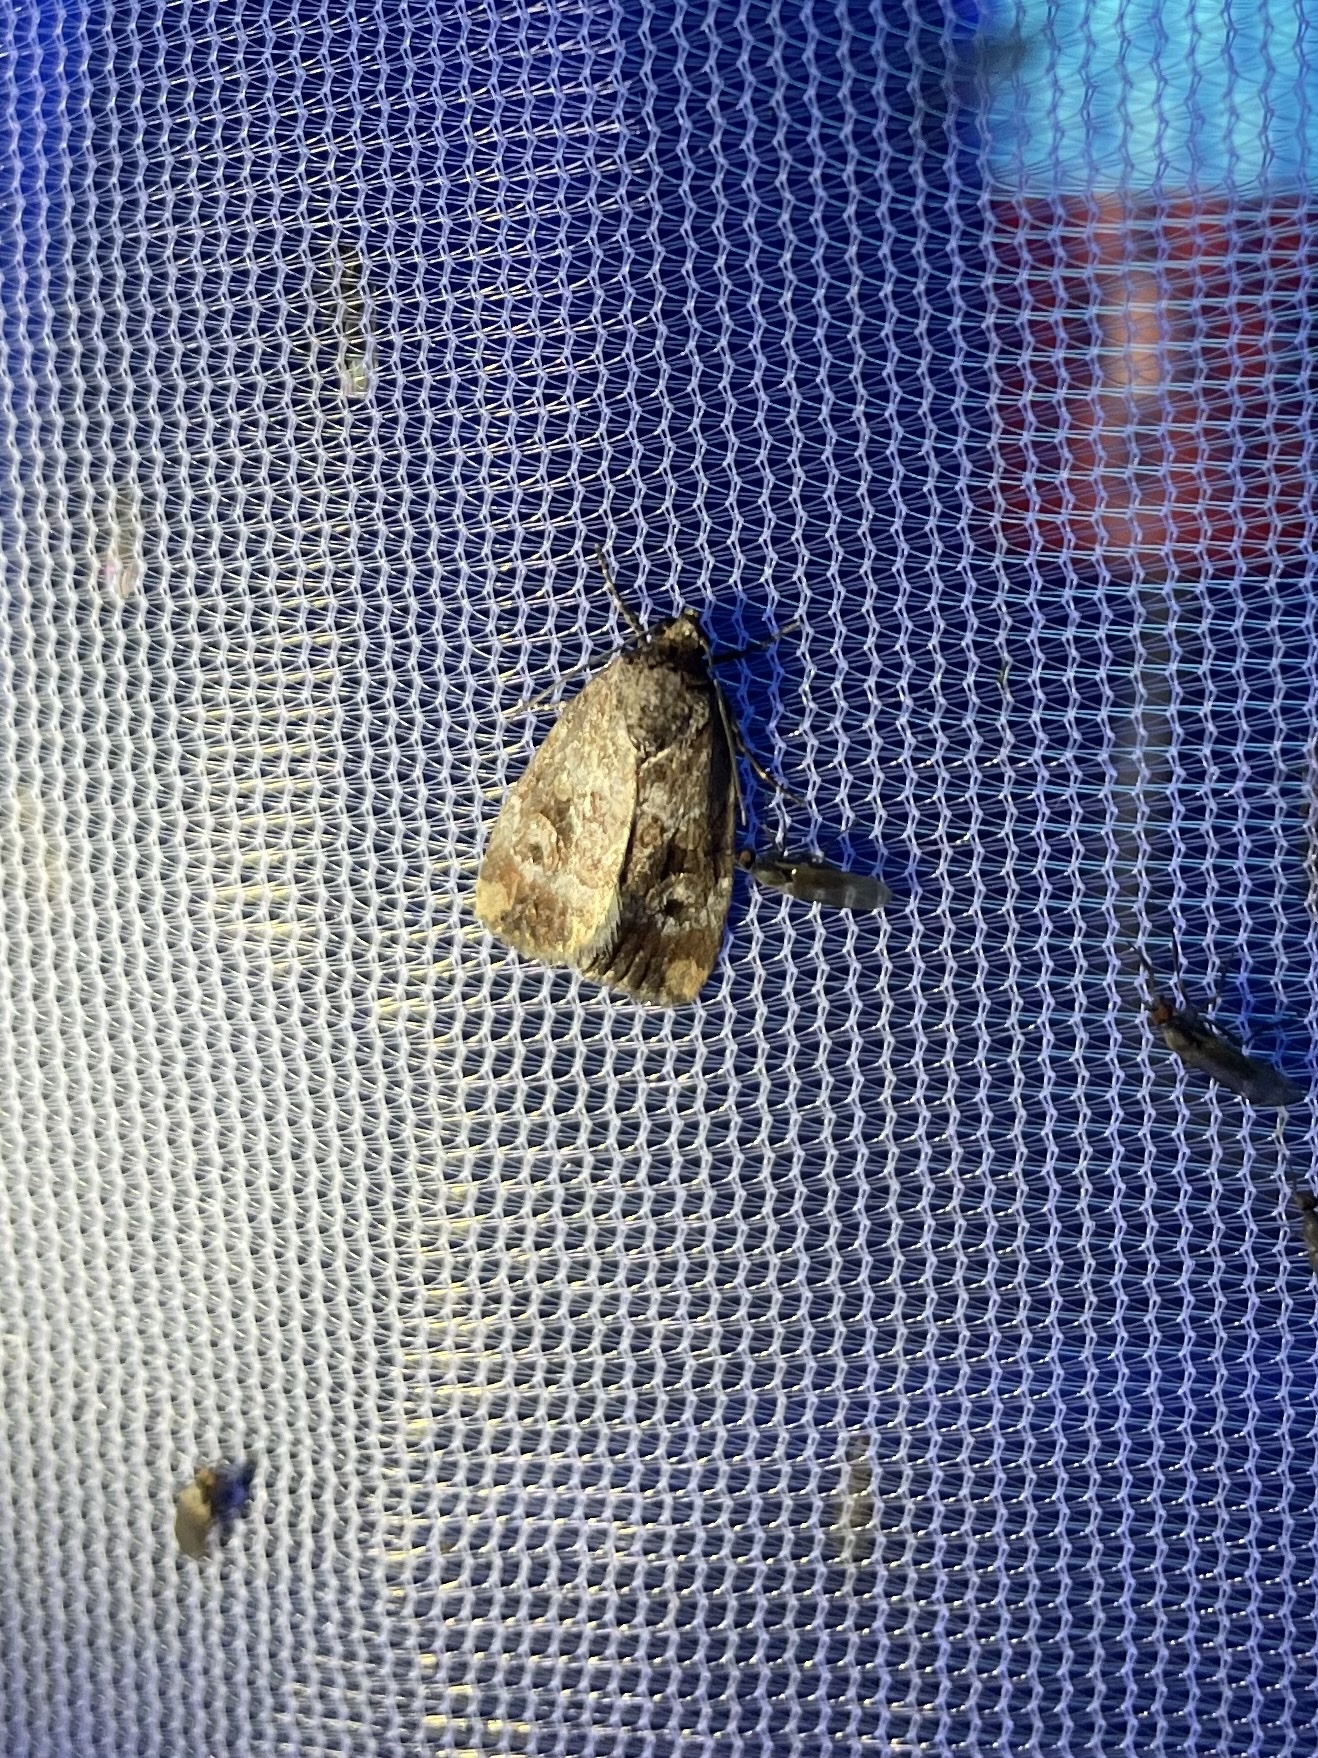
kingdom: Animalia
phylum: Arthropoda
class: Insecta
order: Lepidoptera
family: Noctuidae
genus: Elaphria
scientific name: Elaphria alapallida
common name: Pale-winged midget
